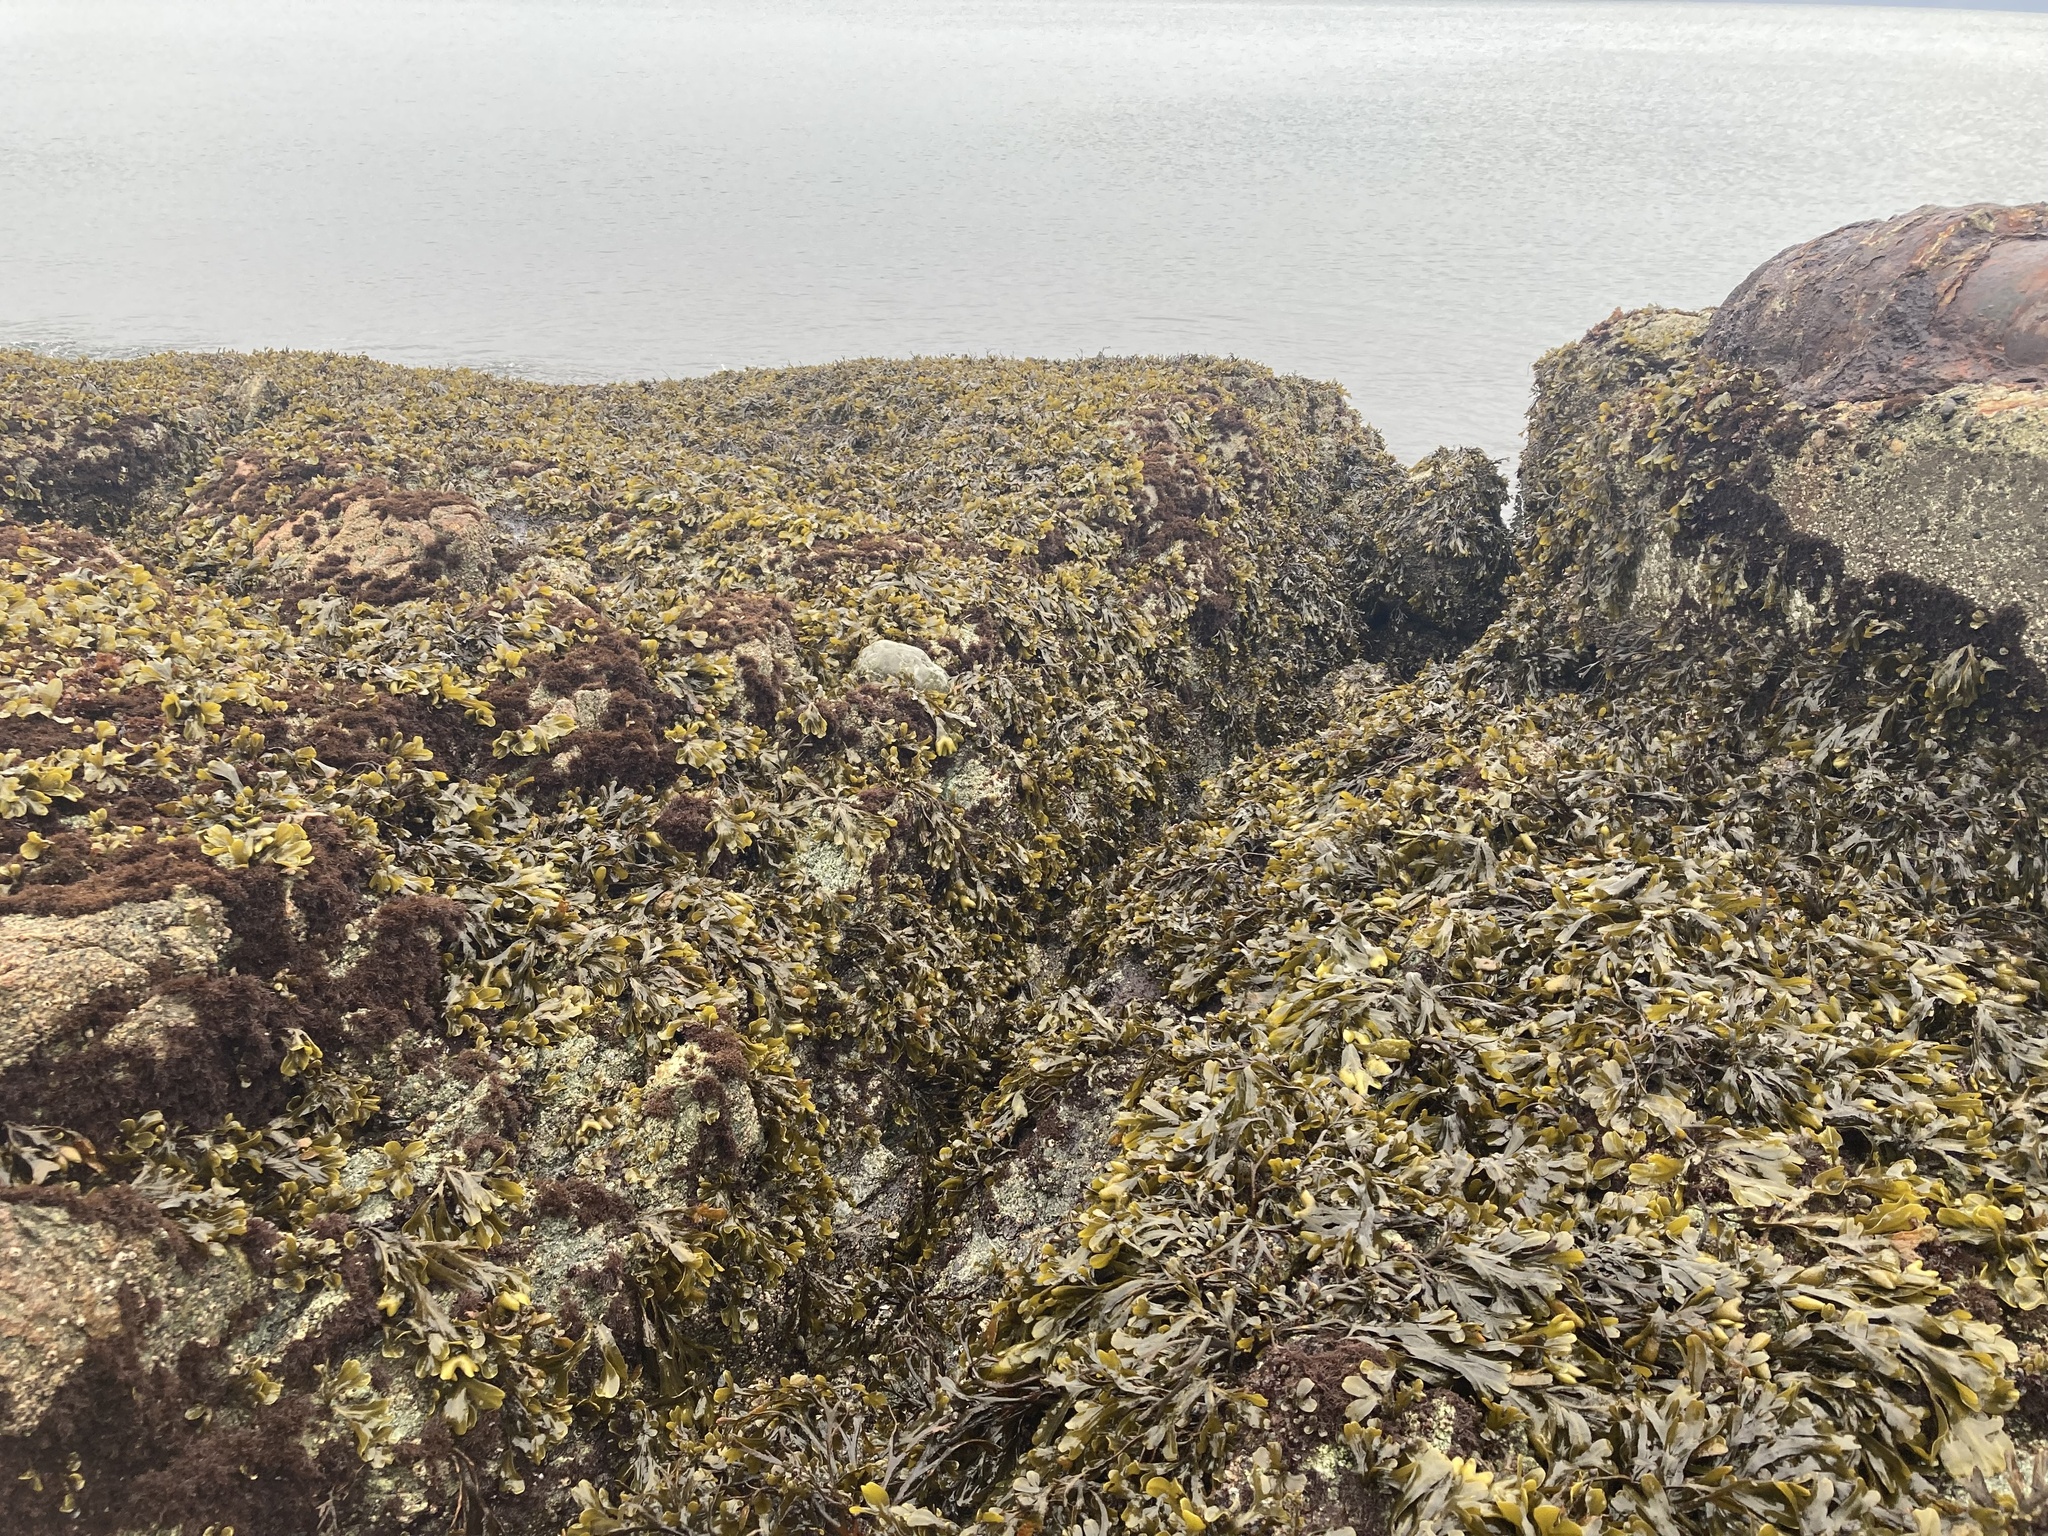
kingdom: Chromista
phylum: Ochrophyta
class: Phaeophyceae
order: Fucales
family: Fucaceae
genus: Fucus
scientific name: Fucus distichus
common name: Rockweed
